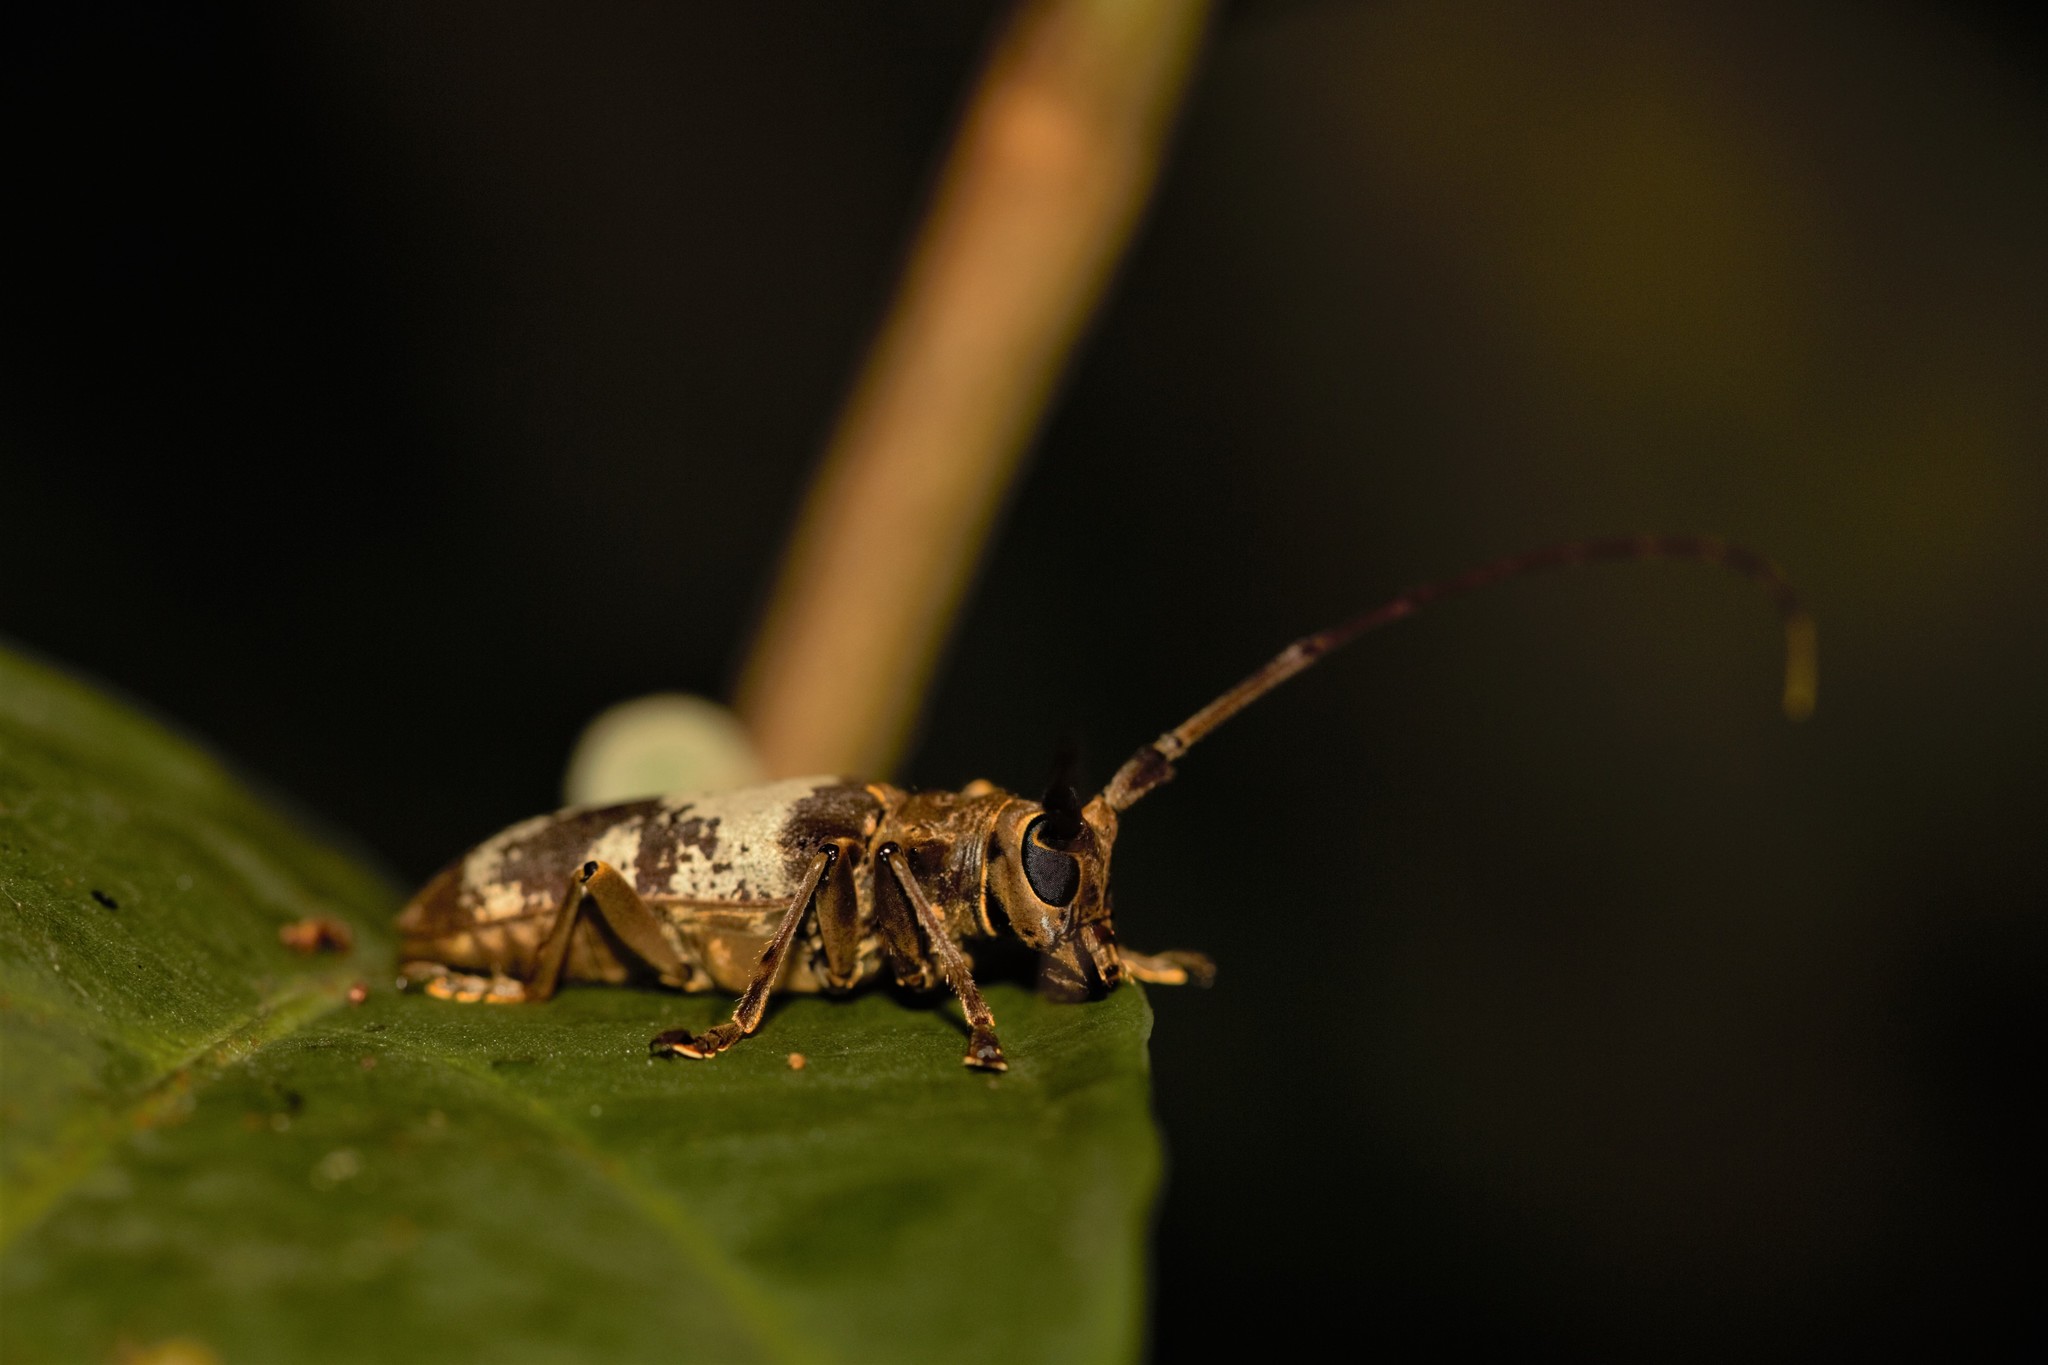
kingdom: Animalia
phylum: Arthropoda
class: Insecta
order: Coleoptera
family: Cerambycidae
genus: Monochamus
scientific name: Monochamus griseoplagiatus
